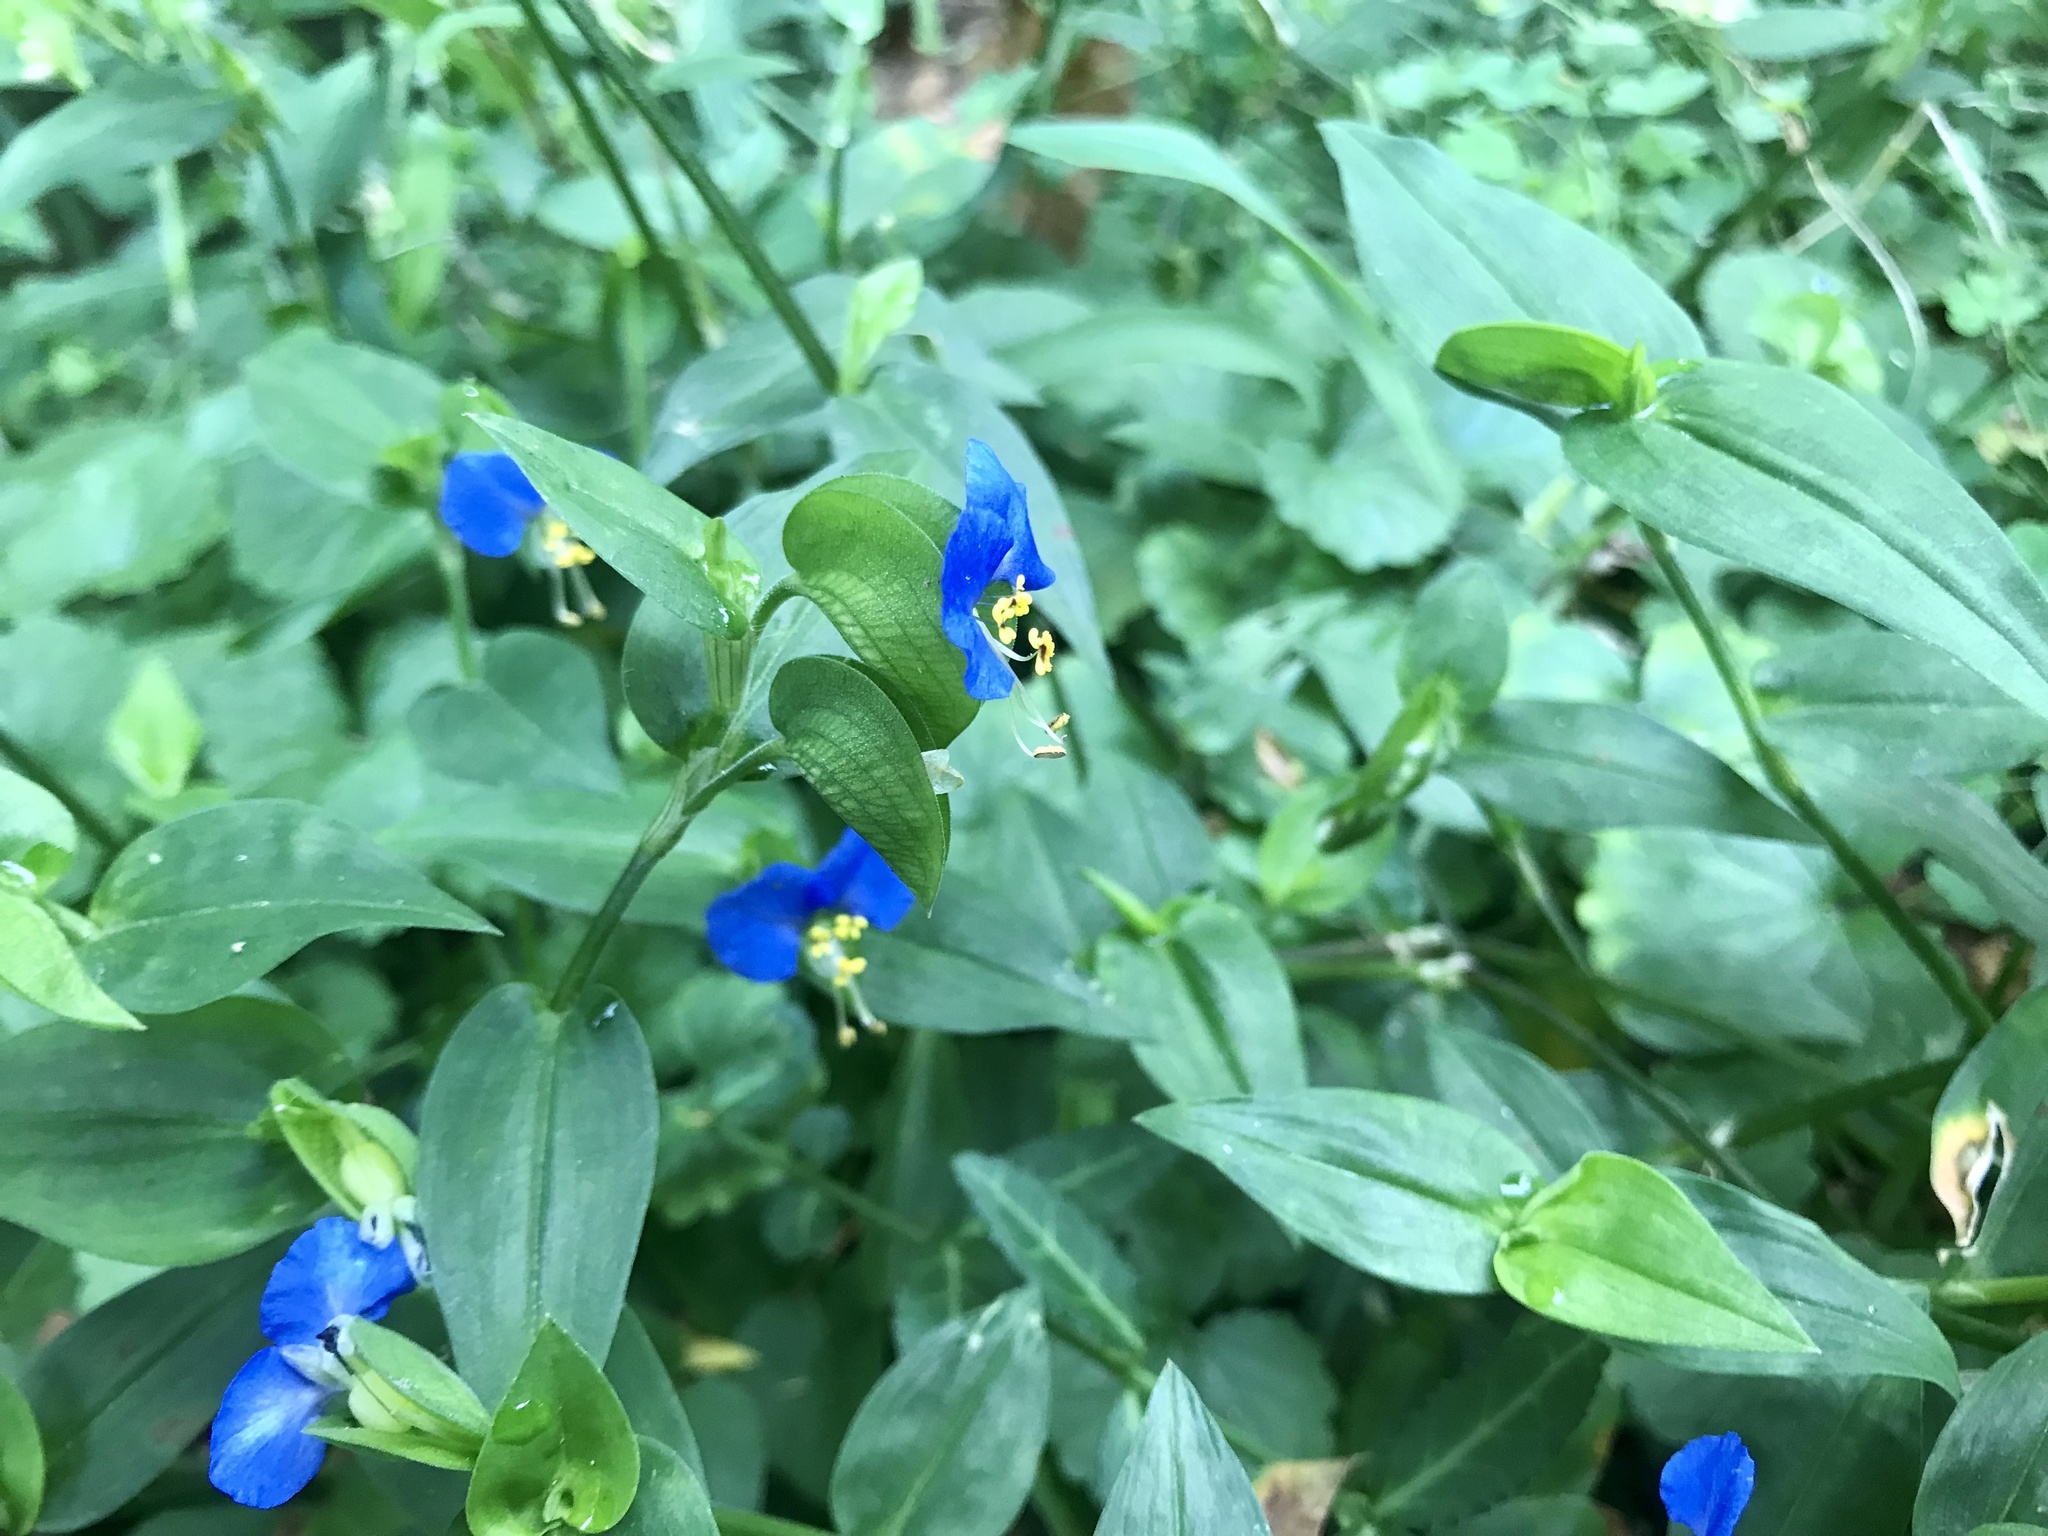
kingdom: Plantae
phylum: Tracheophyta
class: Liliopsida
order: Commelinales
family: Commelinaceae
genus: Commelina
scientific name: Commelina communis
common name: Asiatic dayflower
